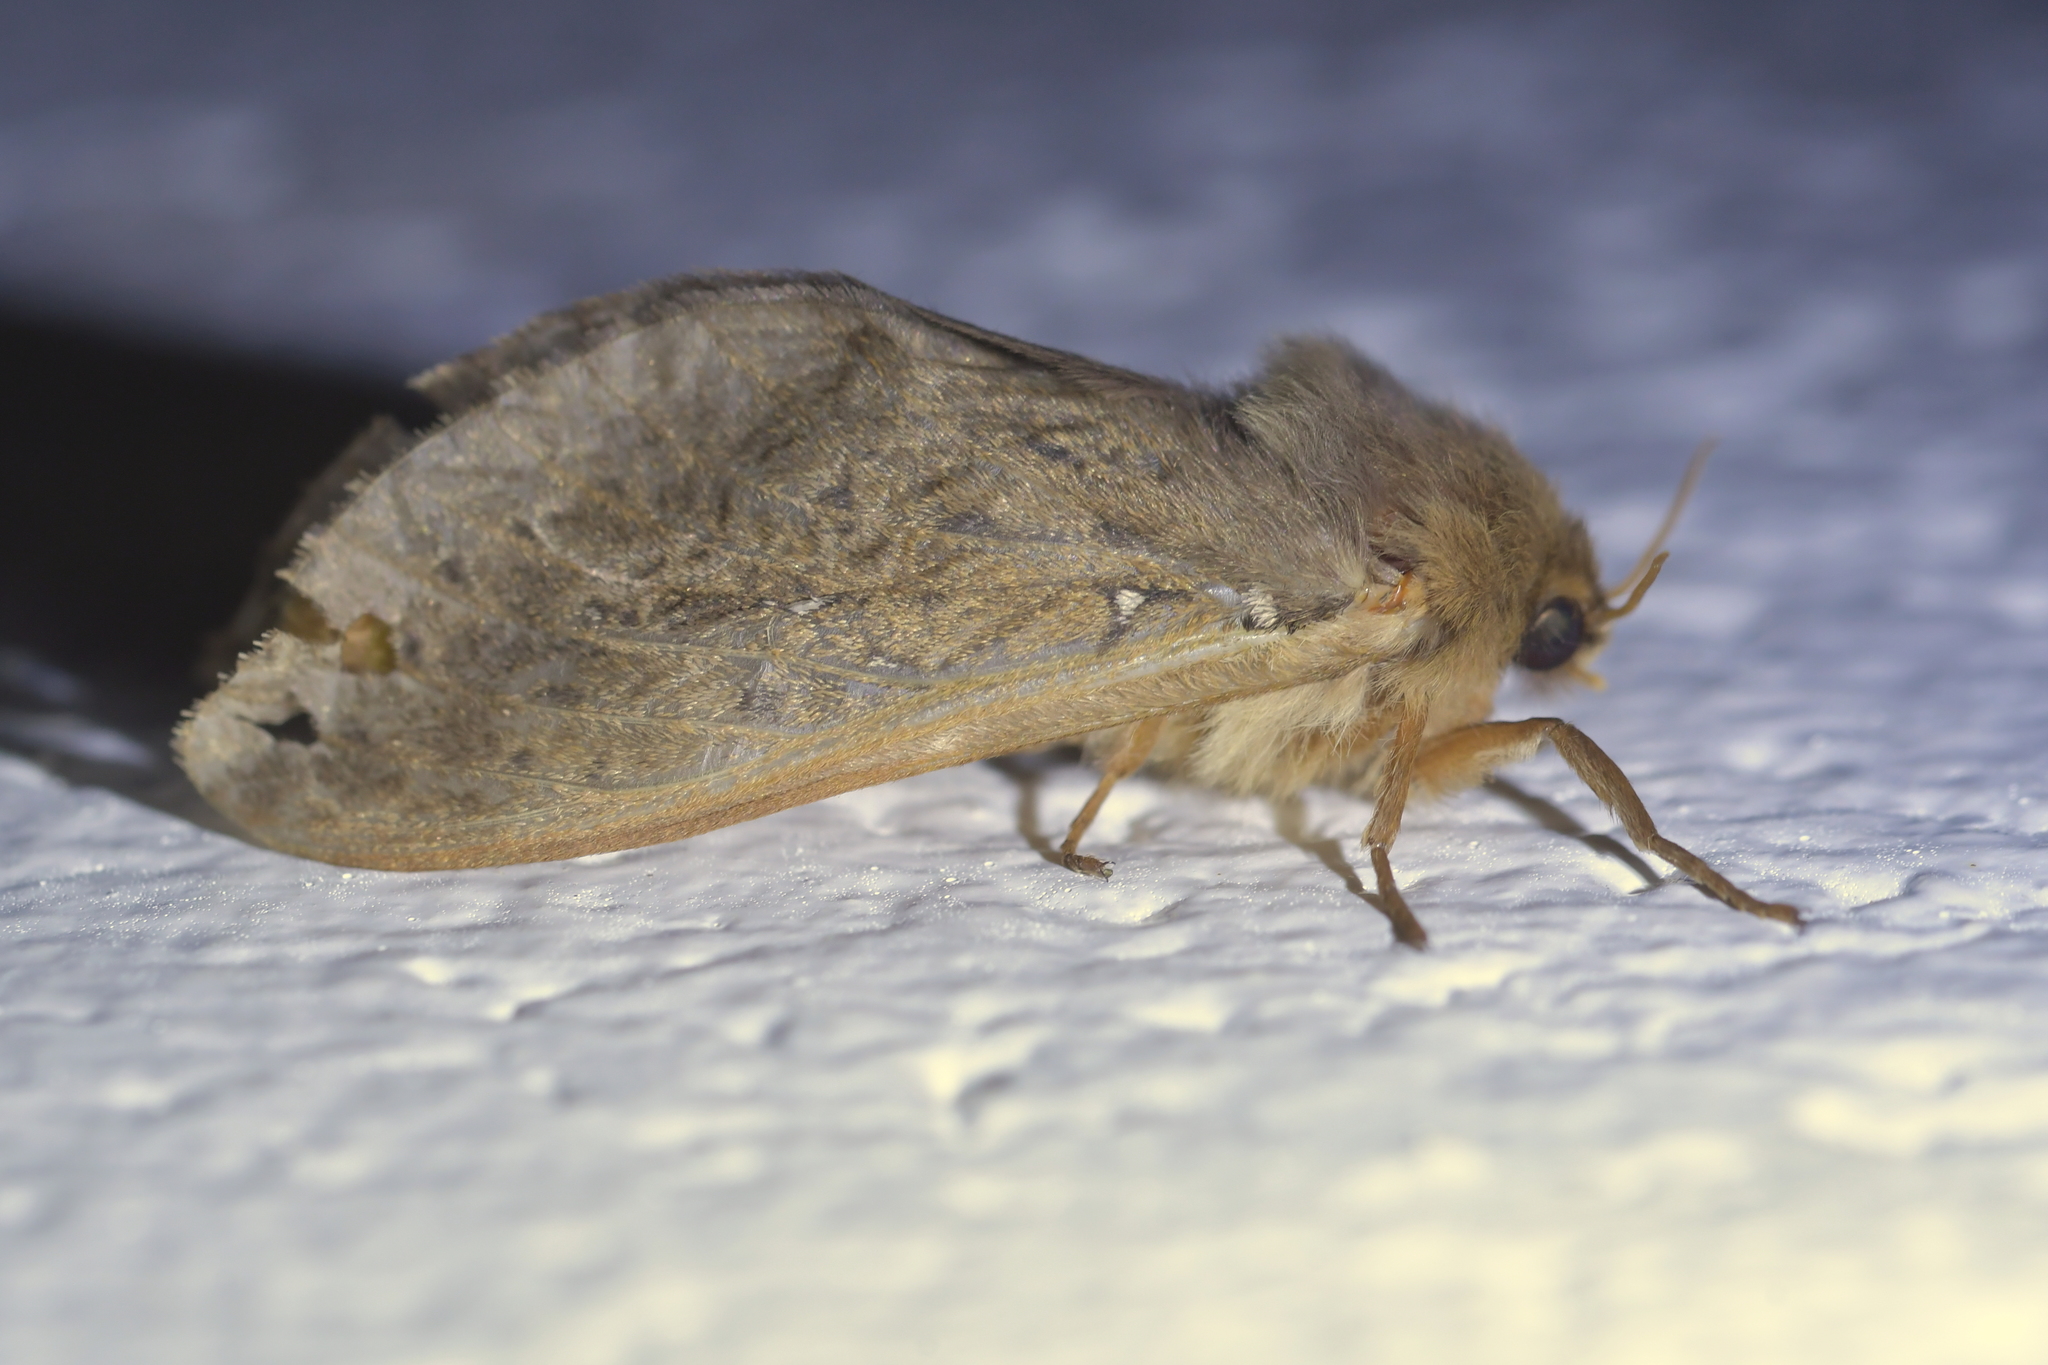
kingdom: Animalia
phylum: Arthropoda
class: Insecta
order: Lepidoptera
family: Hepialidae
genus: Wiseana
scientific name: Wiseana cervinata
